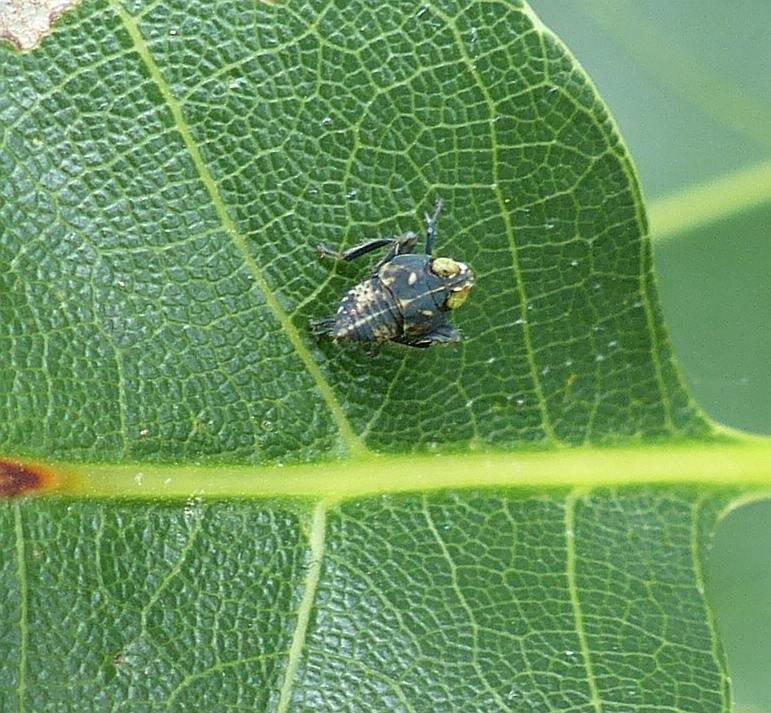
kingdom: Animalia
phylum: Arthropoda
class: Insecta
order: Hemiptera
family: Cicadellidae
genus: Jikradia
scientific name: Jikradia olitoria
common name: Coppery leafhopper
